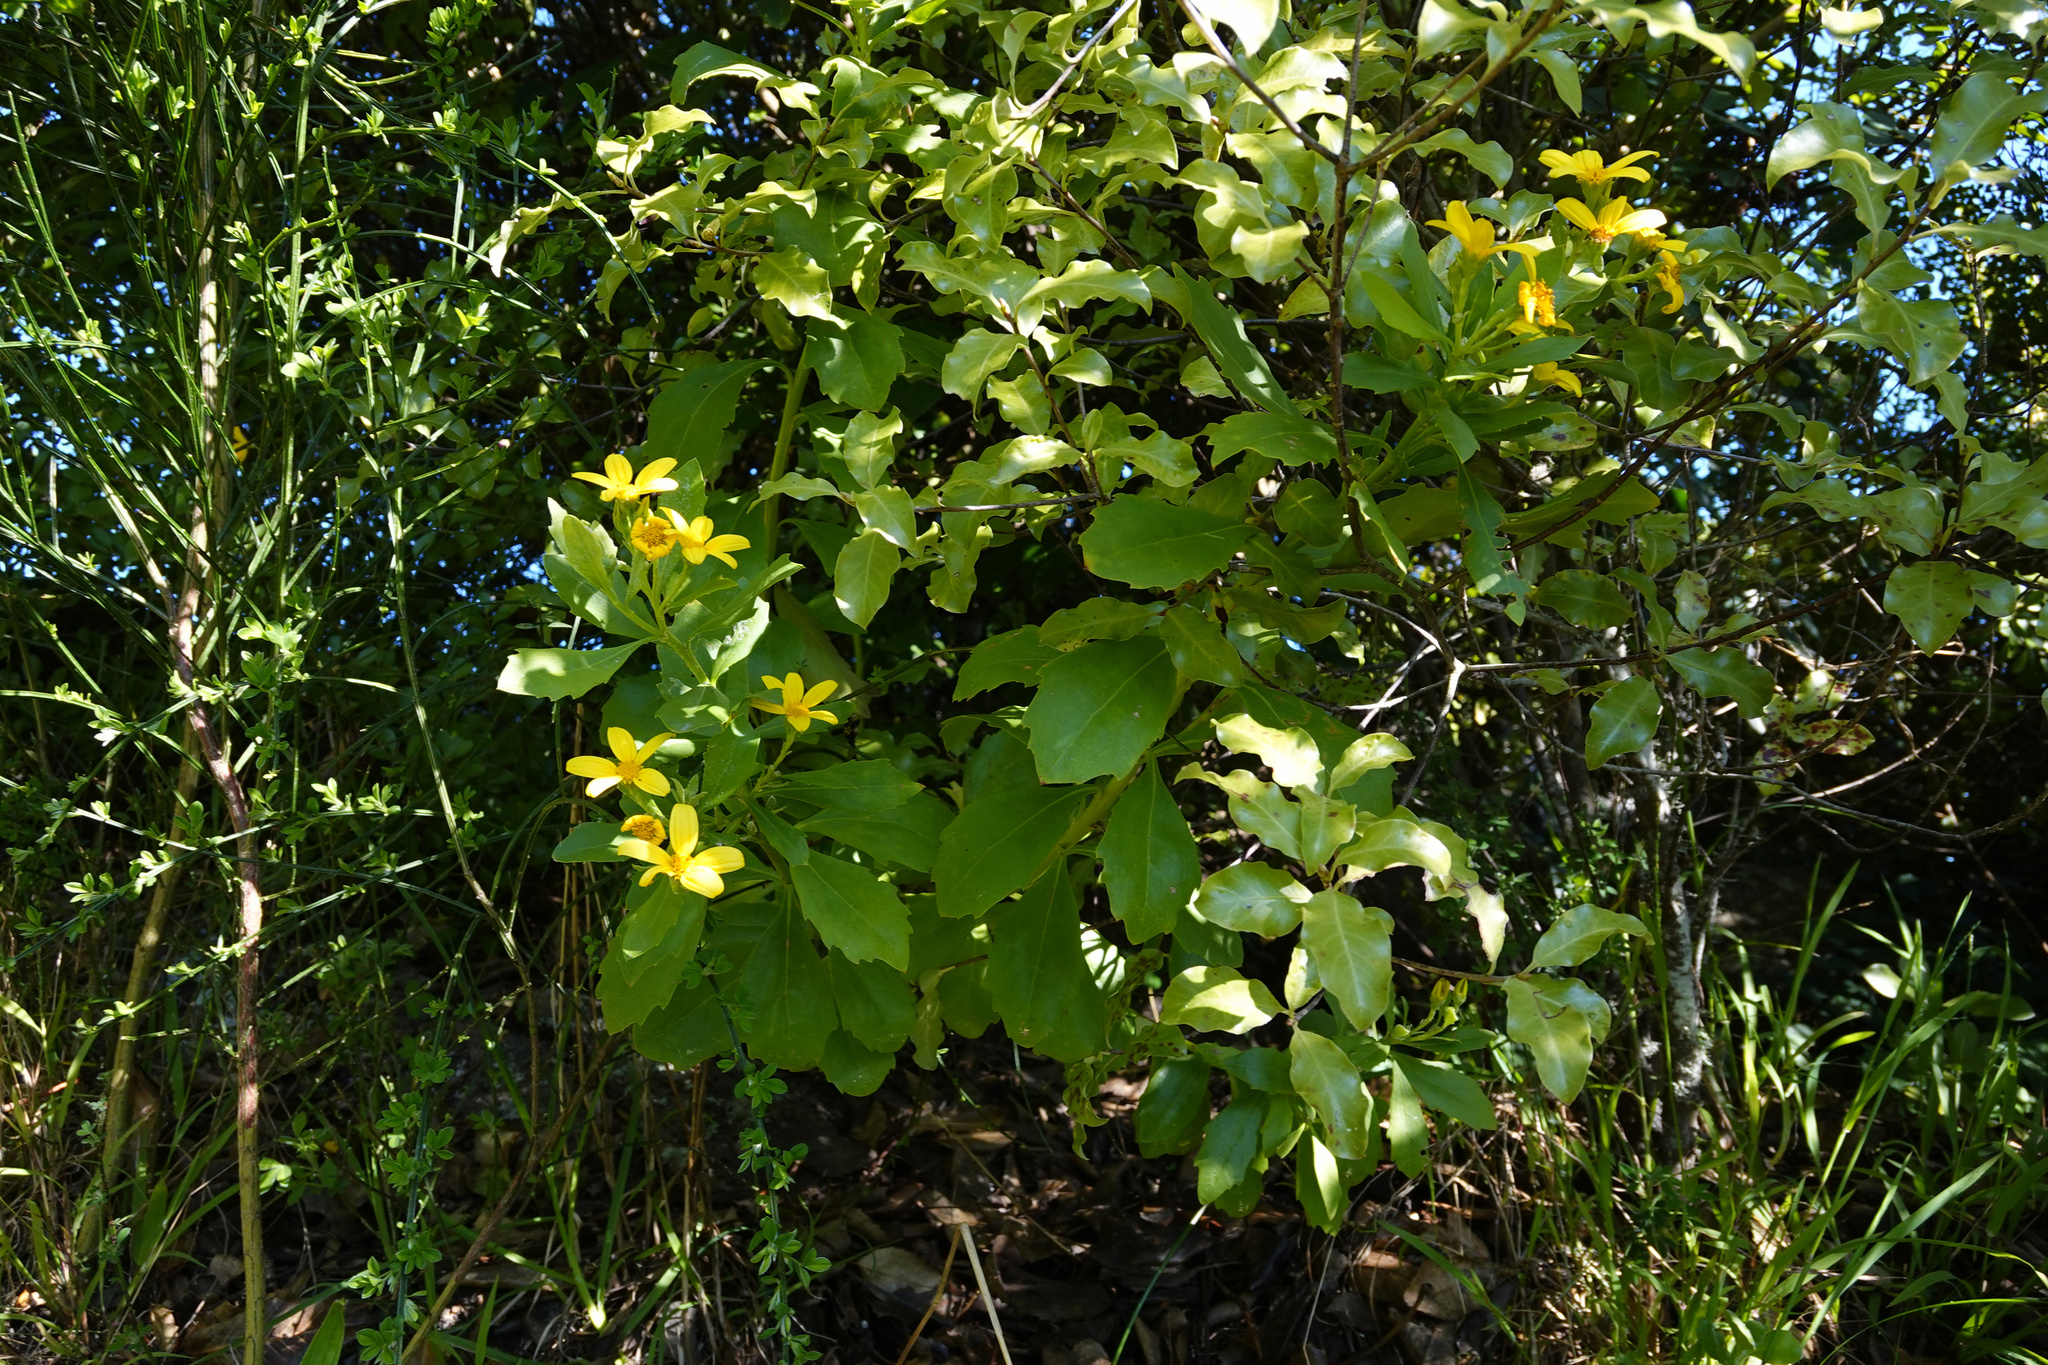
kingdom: Plantae
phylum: Tracheophyta
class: Magnoliopsida
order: Asterales
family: Asteraceae
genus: Osteospermum
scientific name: Osteospermum moniliferum
